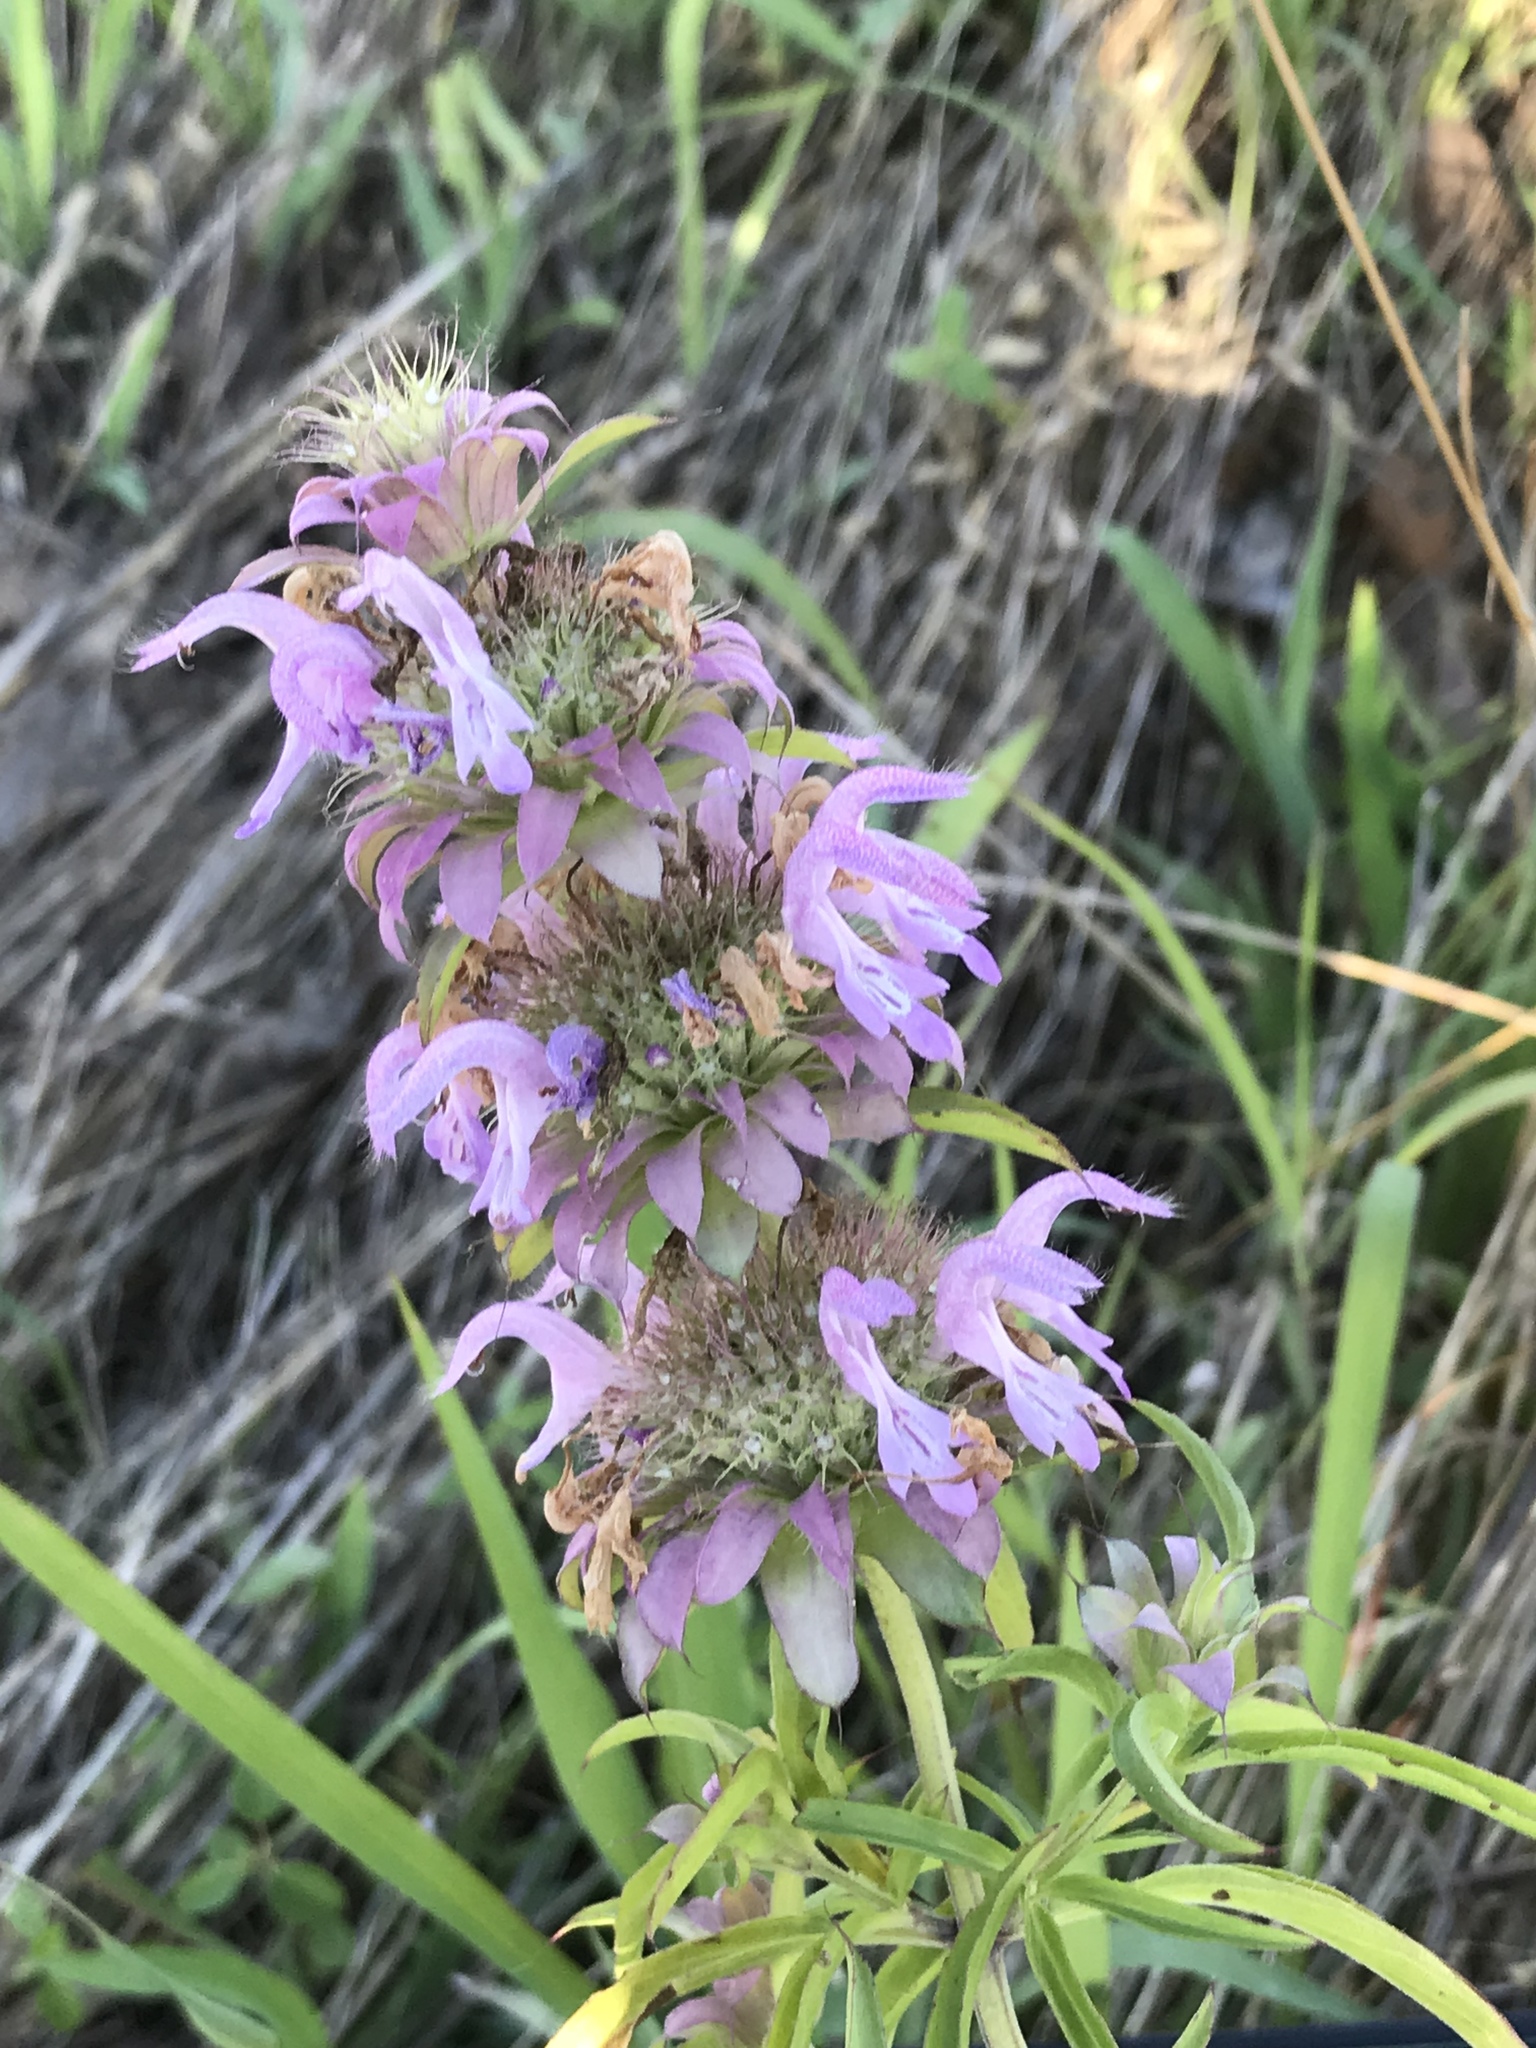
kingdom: Plantae
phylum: Tracheophyta
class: Magnoliopsida
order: Lamiales
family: Lamiaceae
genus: Monarda
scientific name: Monarda citriodora
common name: Lemon beebalm
